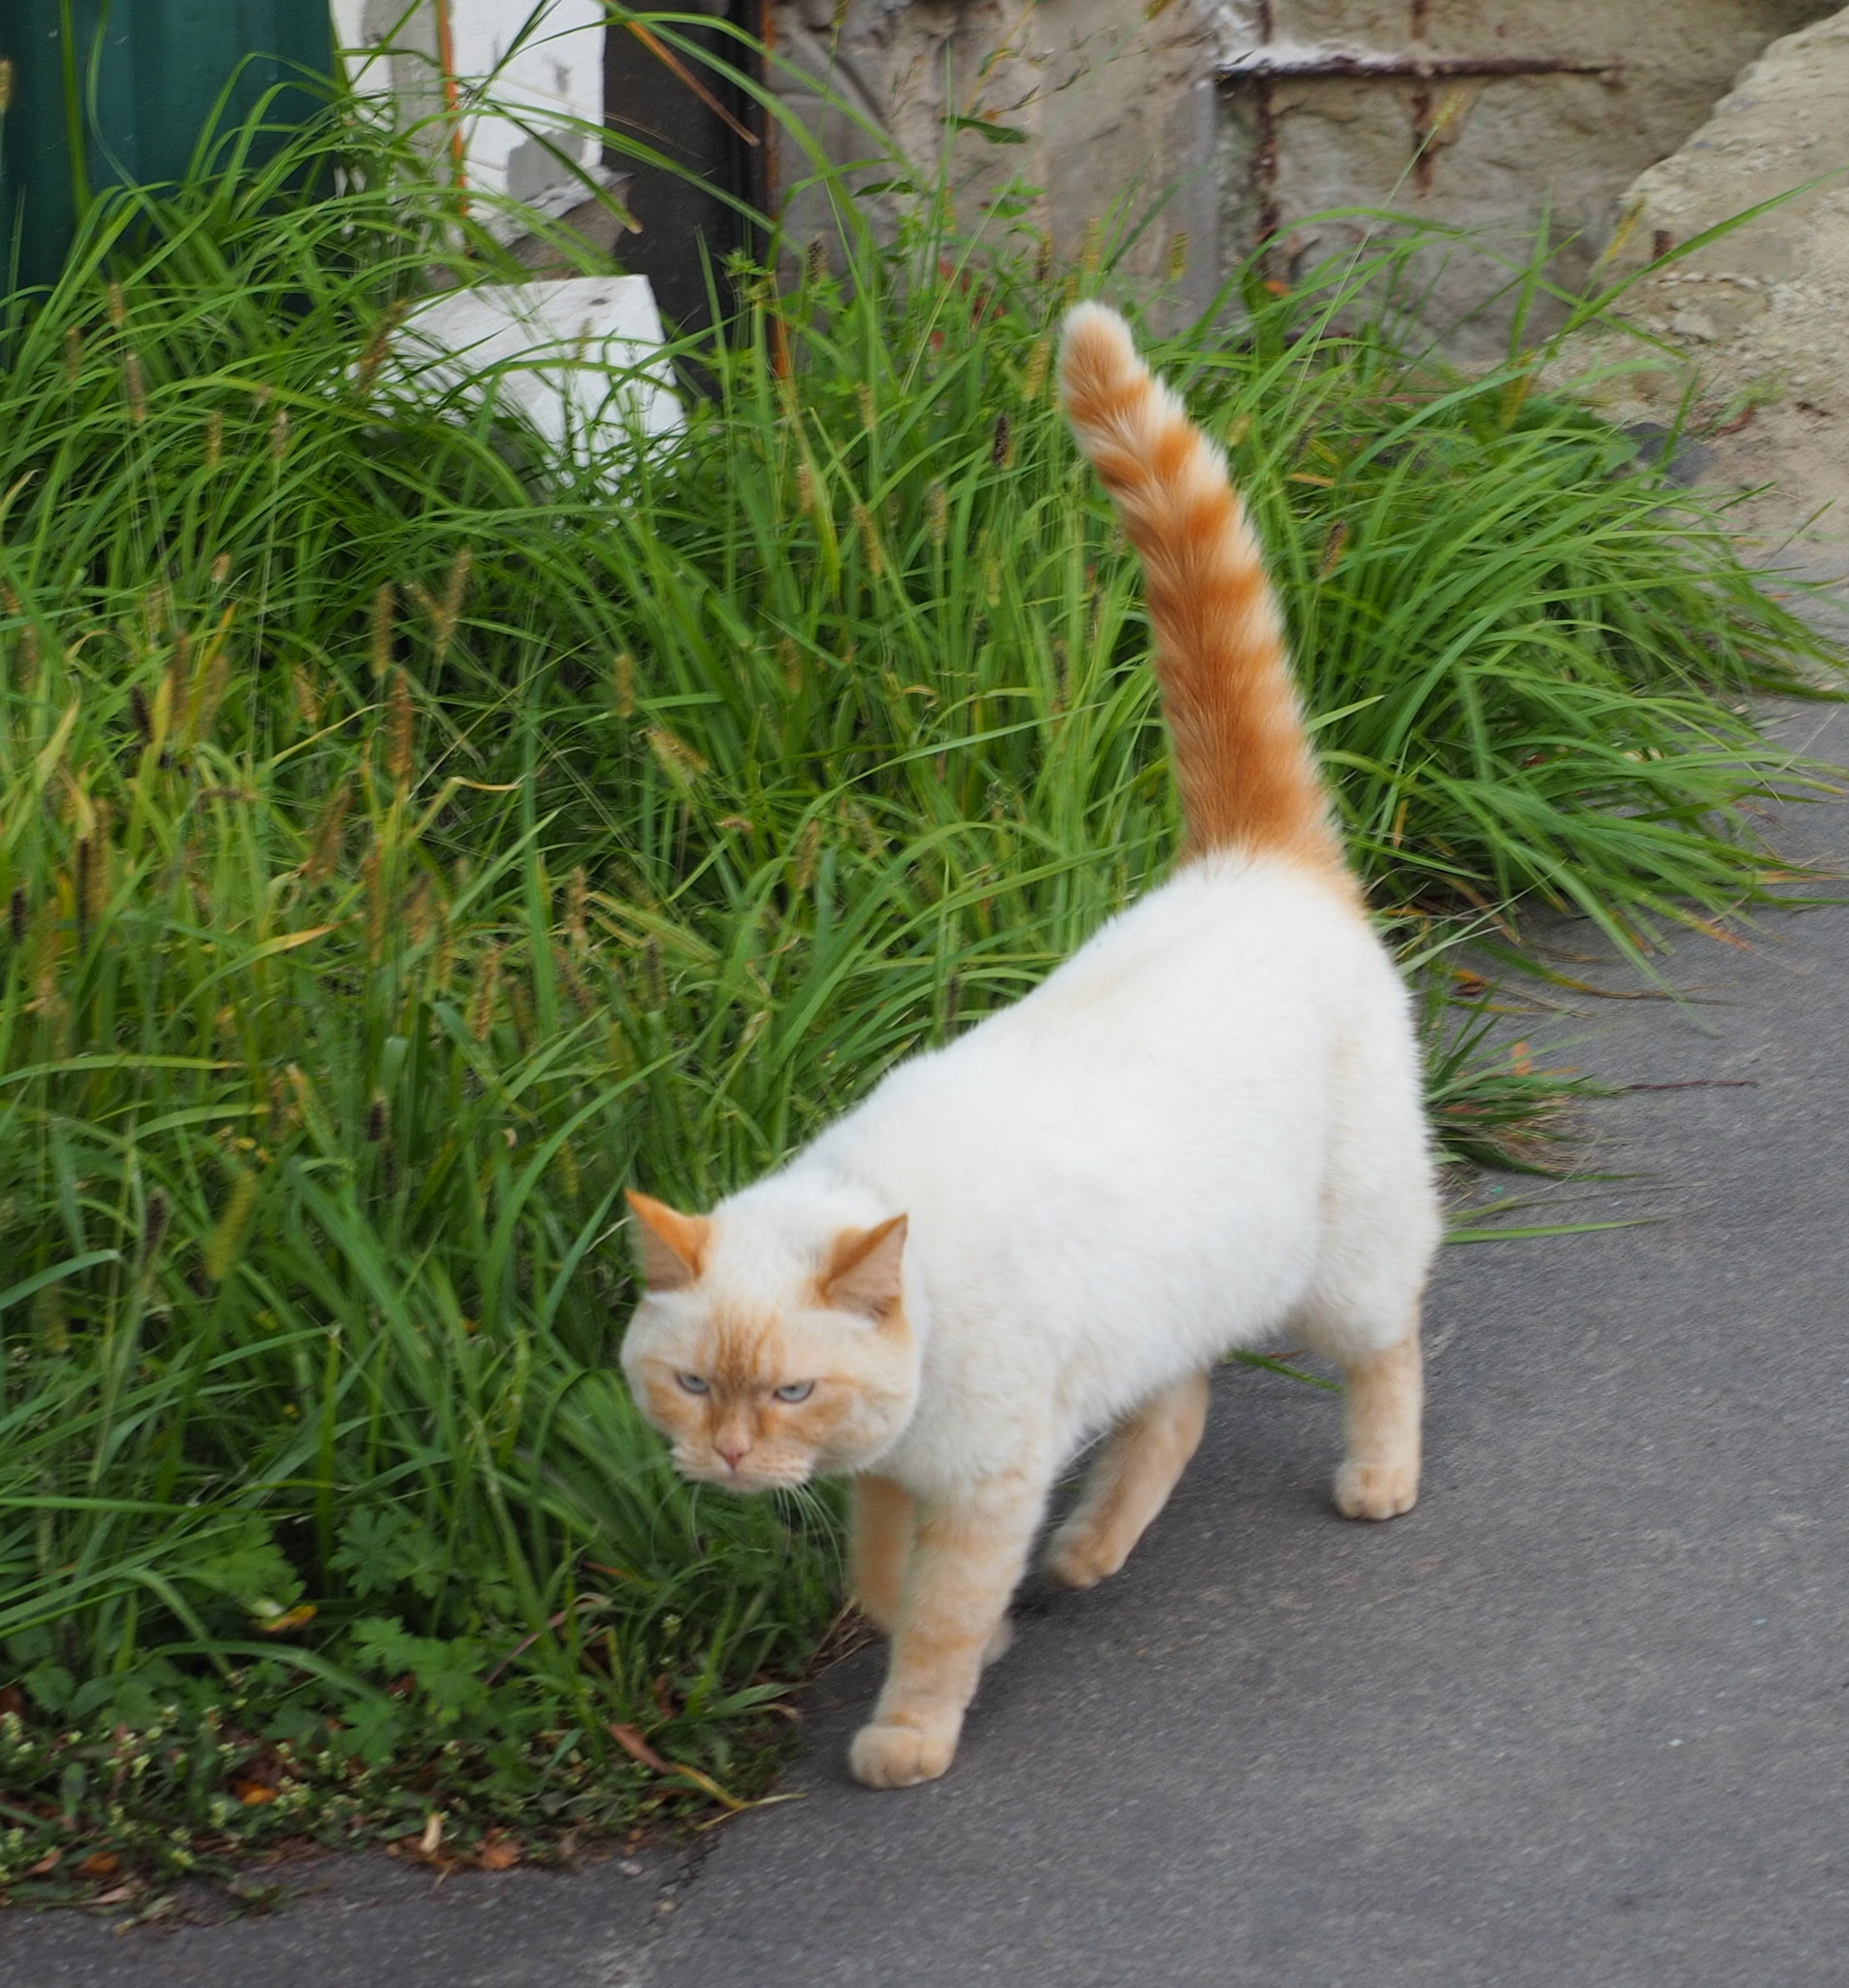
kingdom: Animalia
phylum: Chordata
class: Mammalia
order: Carnivora
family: Felidae
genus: Felis
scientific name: Felis catus
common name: Domestic cat
